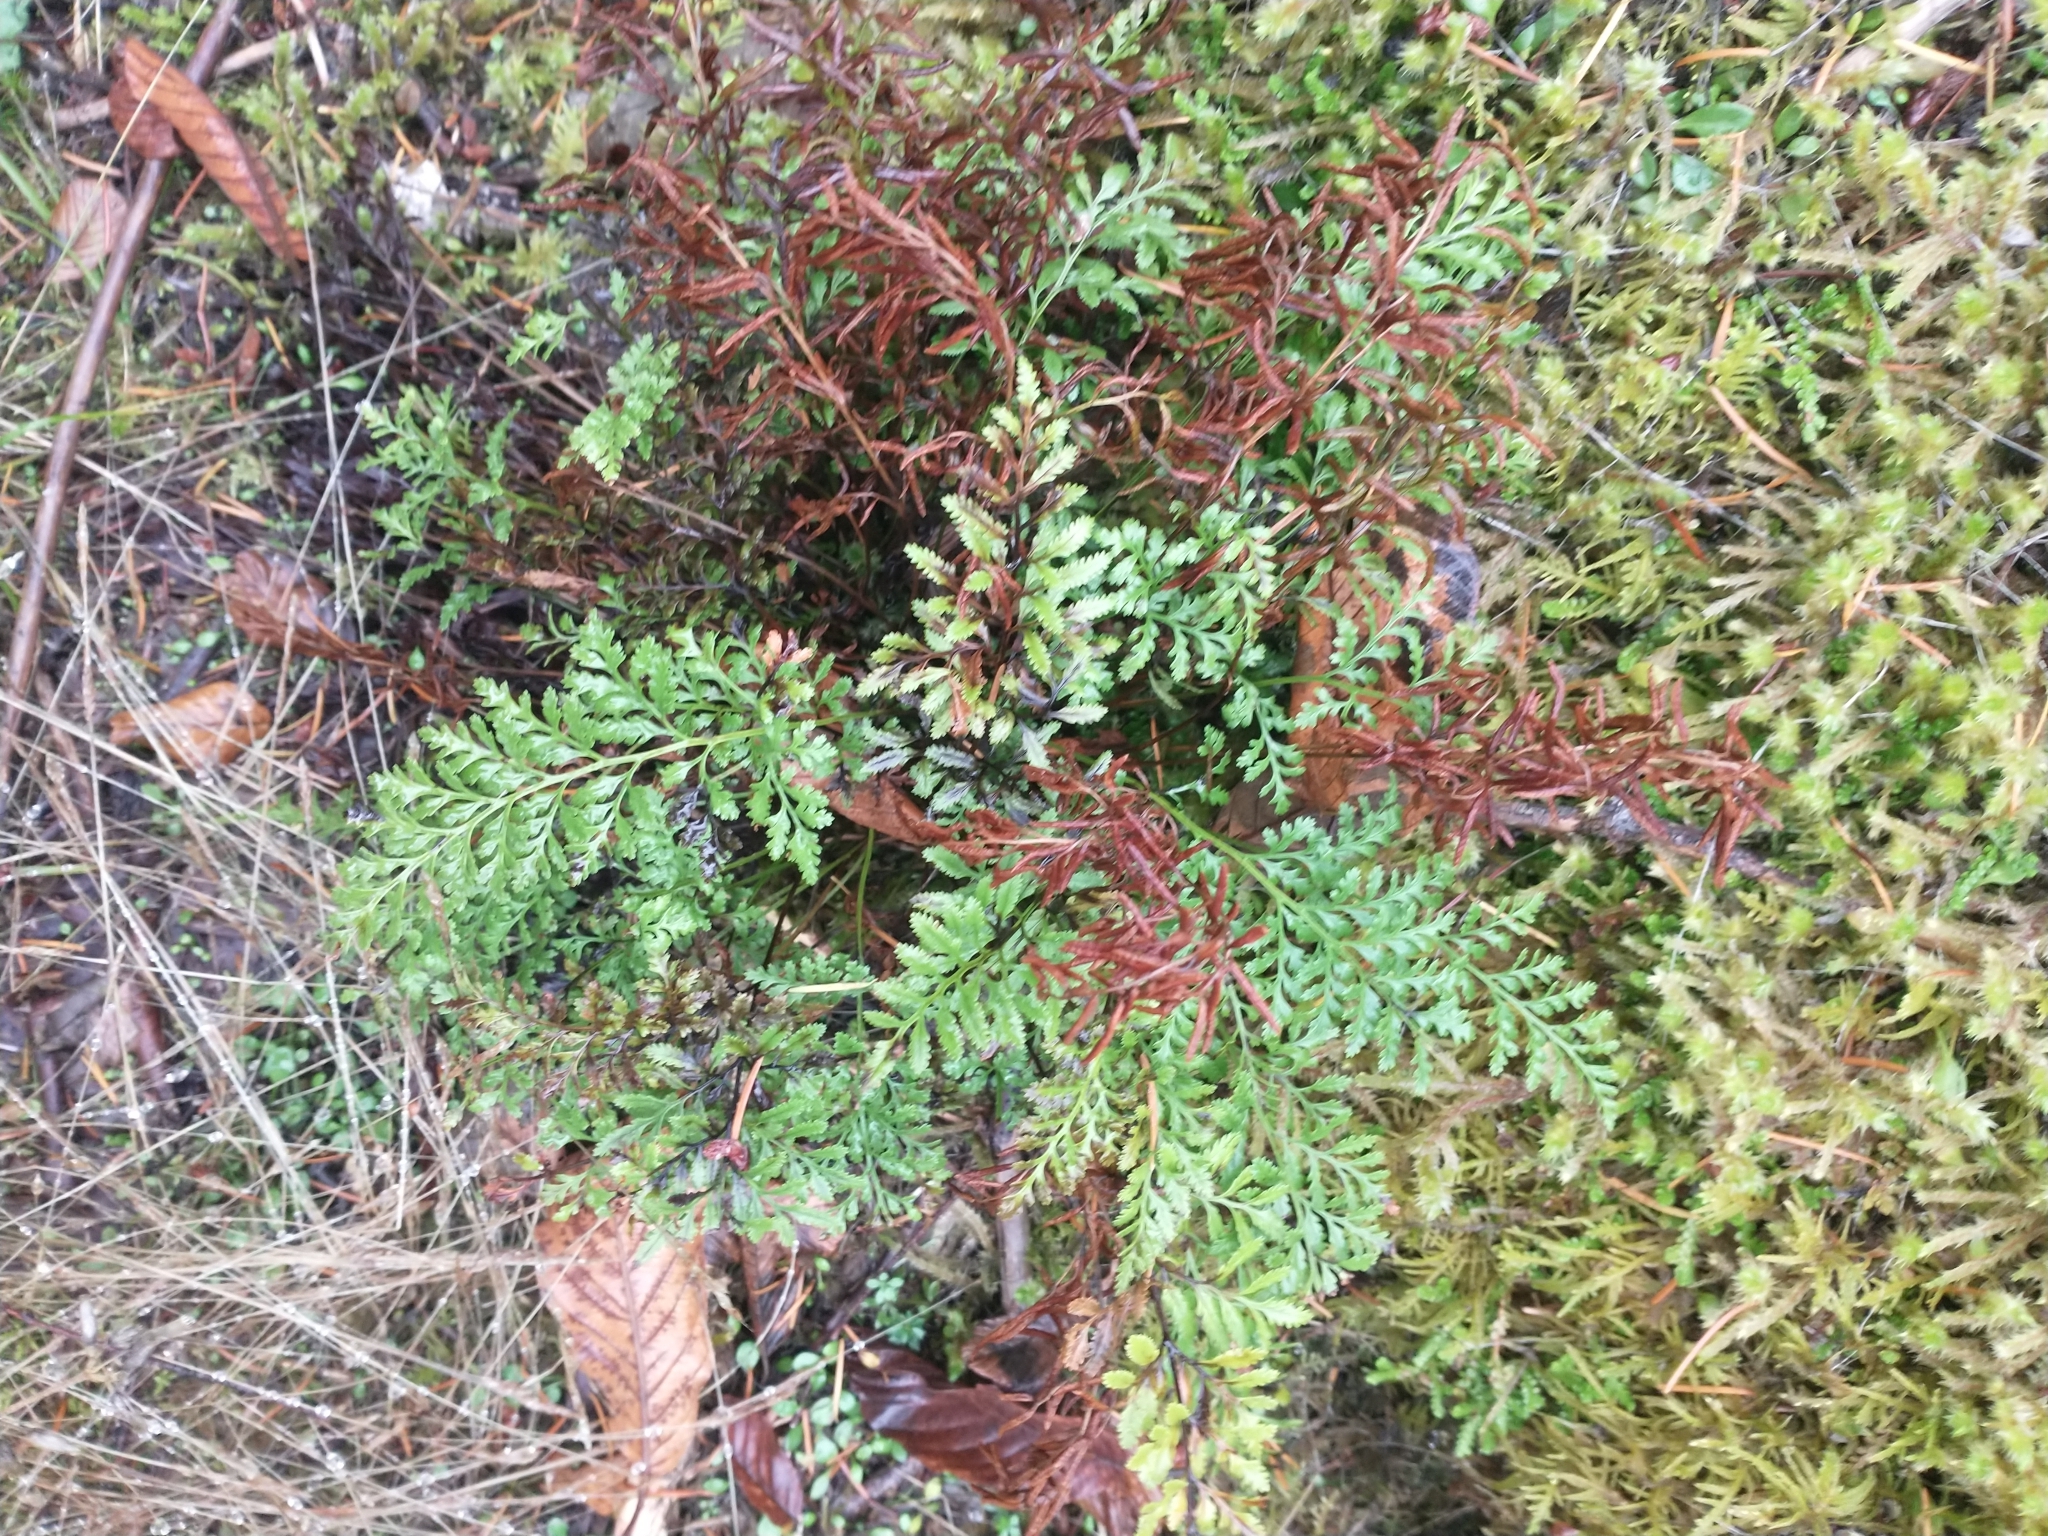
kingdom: Plantae
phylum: Tracheophyta
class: Polypodiopsida
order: Polypodiales
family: Pteridaceae
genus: Cryptogramma
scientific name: Cryptogramma acrostichoides
